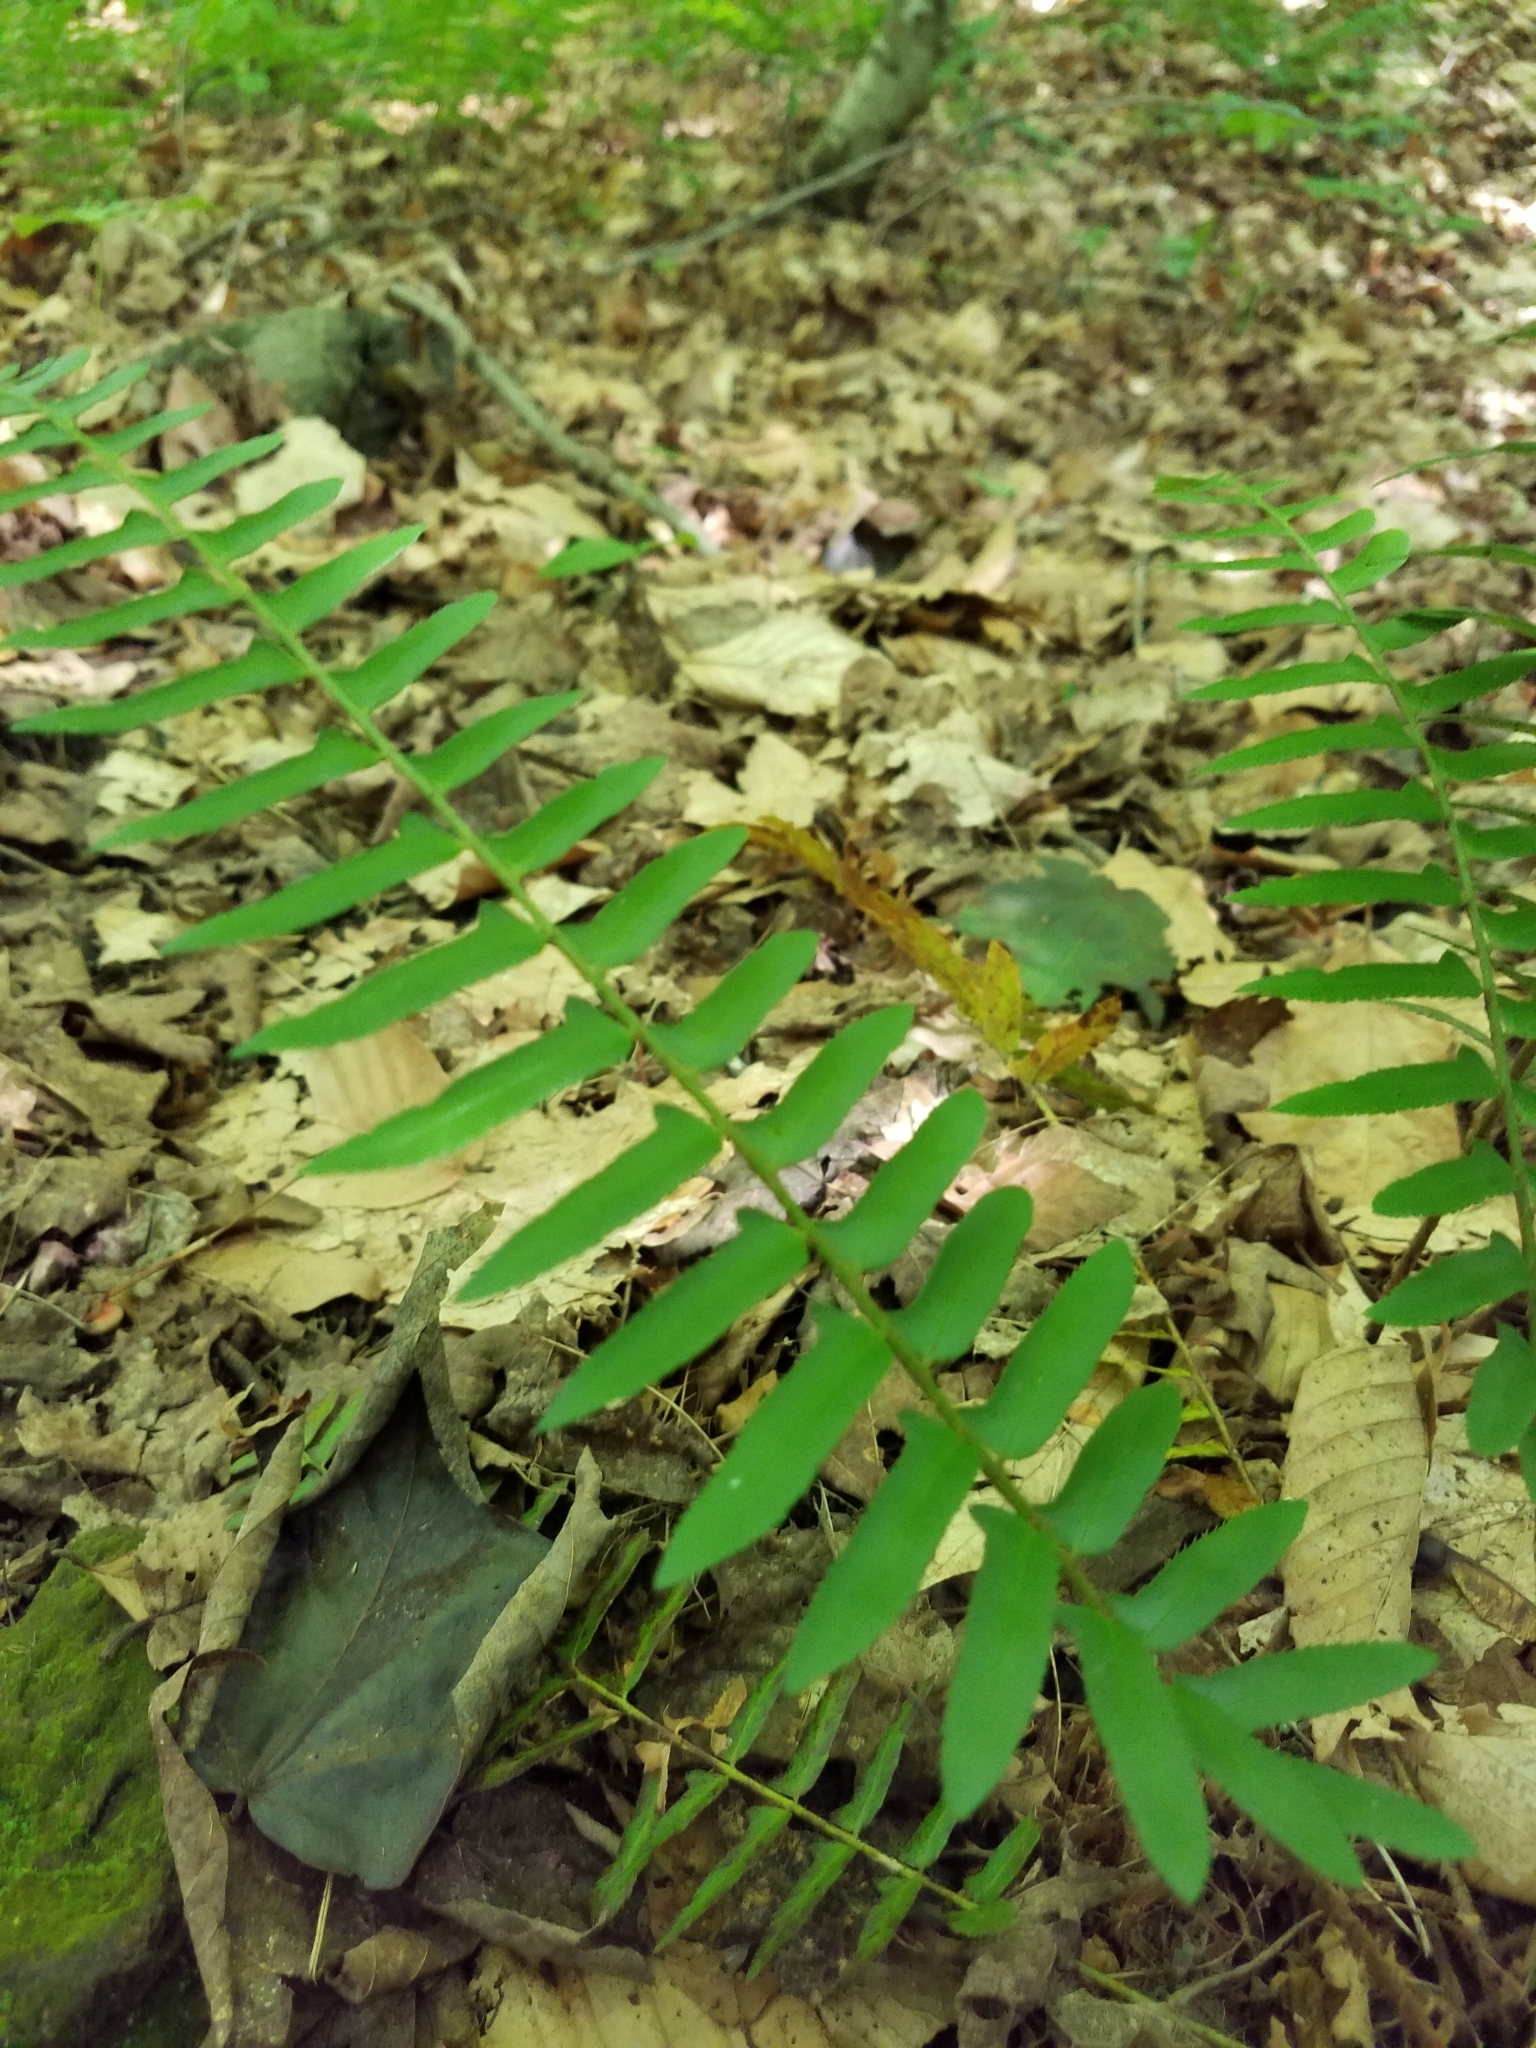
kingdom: Plantae
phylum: Tracheophyta
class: Polypodiopsida
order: Polypodiales
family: Dryopteridaceae
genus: Polystichum
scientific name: Polystichum acrostichoides
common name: Christmas fern
